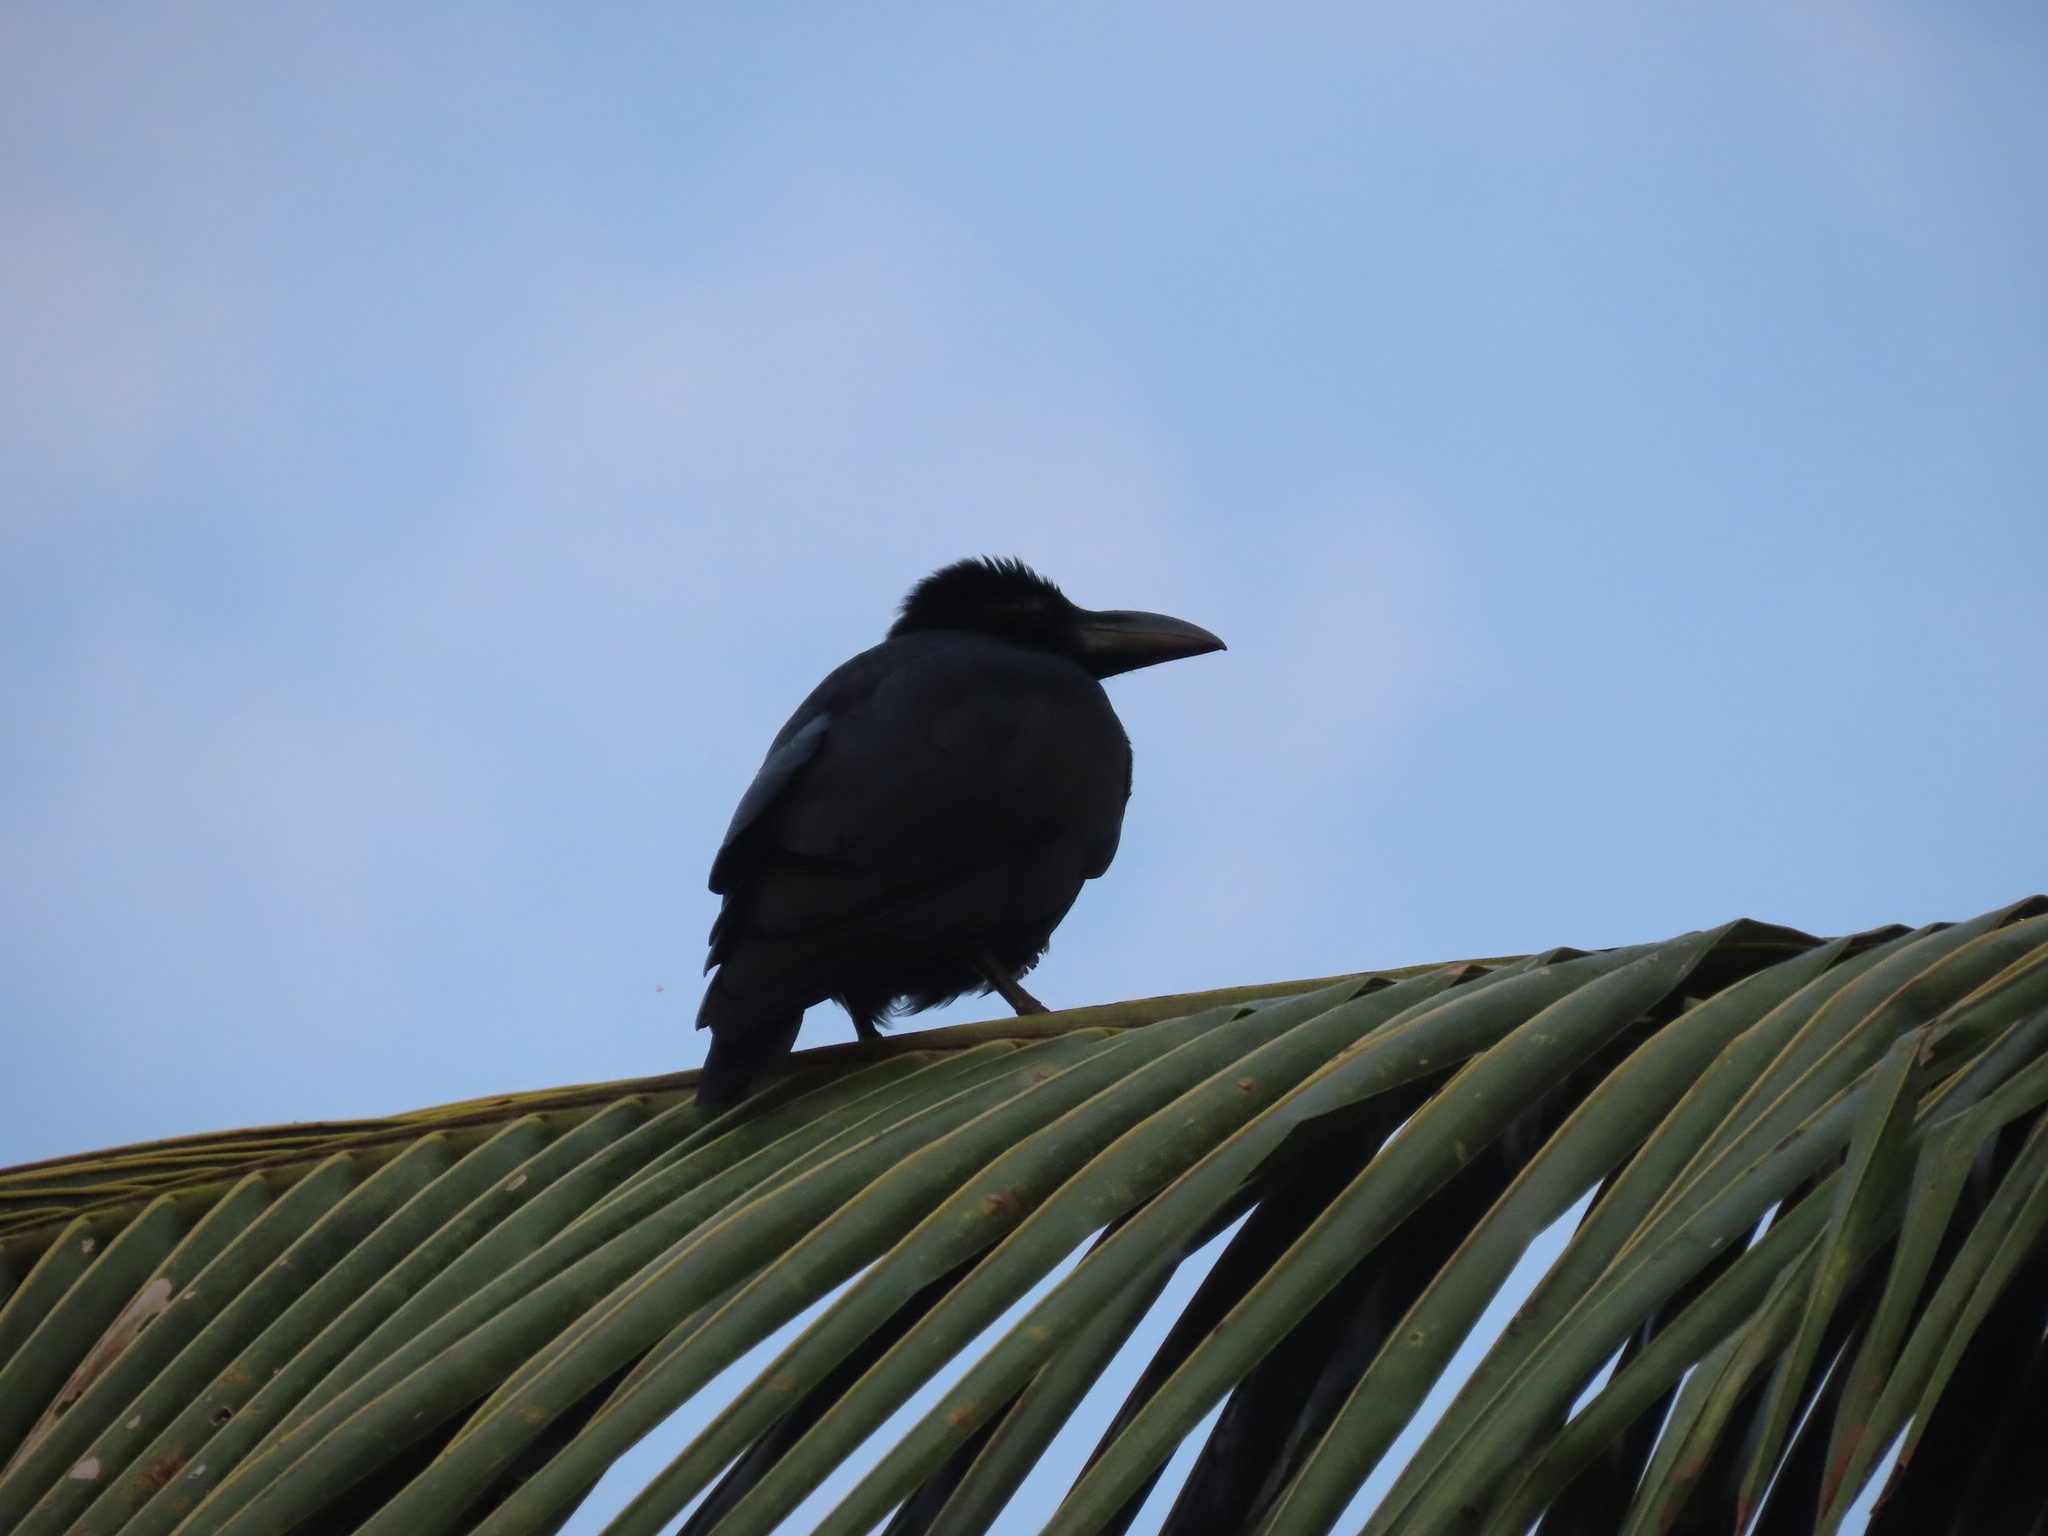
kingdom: Animalia
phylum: Chordata
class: Aves
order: Passeriformes
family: Corvidae
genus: Corvus
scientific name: Corvus macrorhynchos
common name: Large-billed crow
